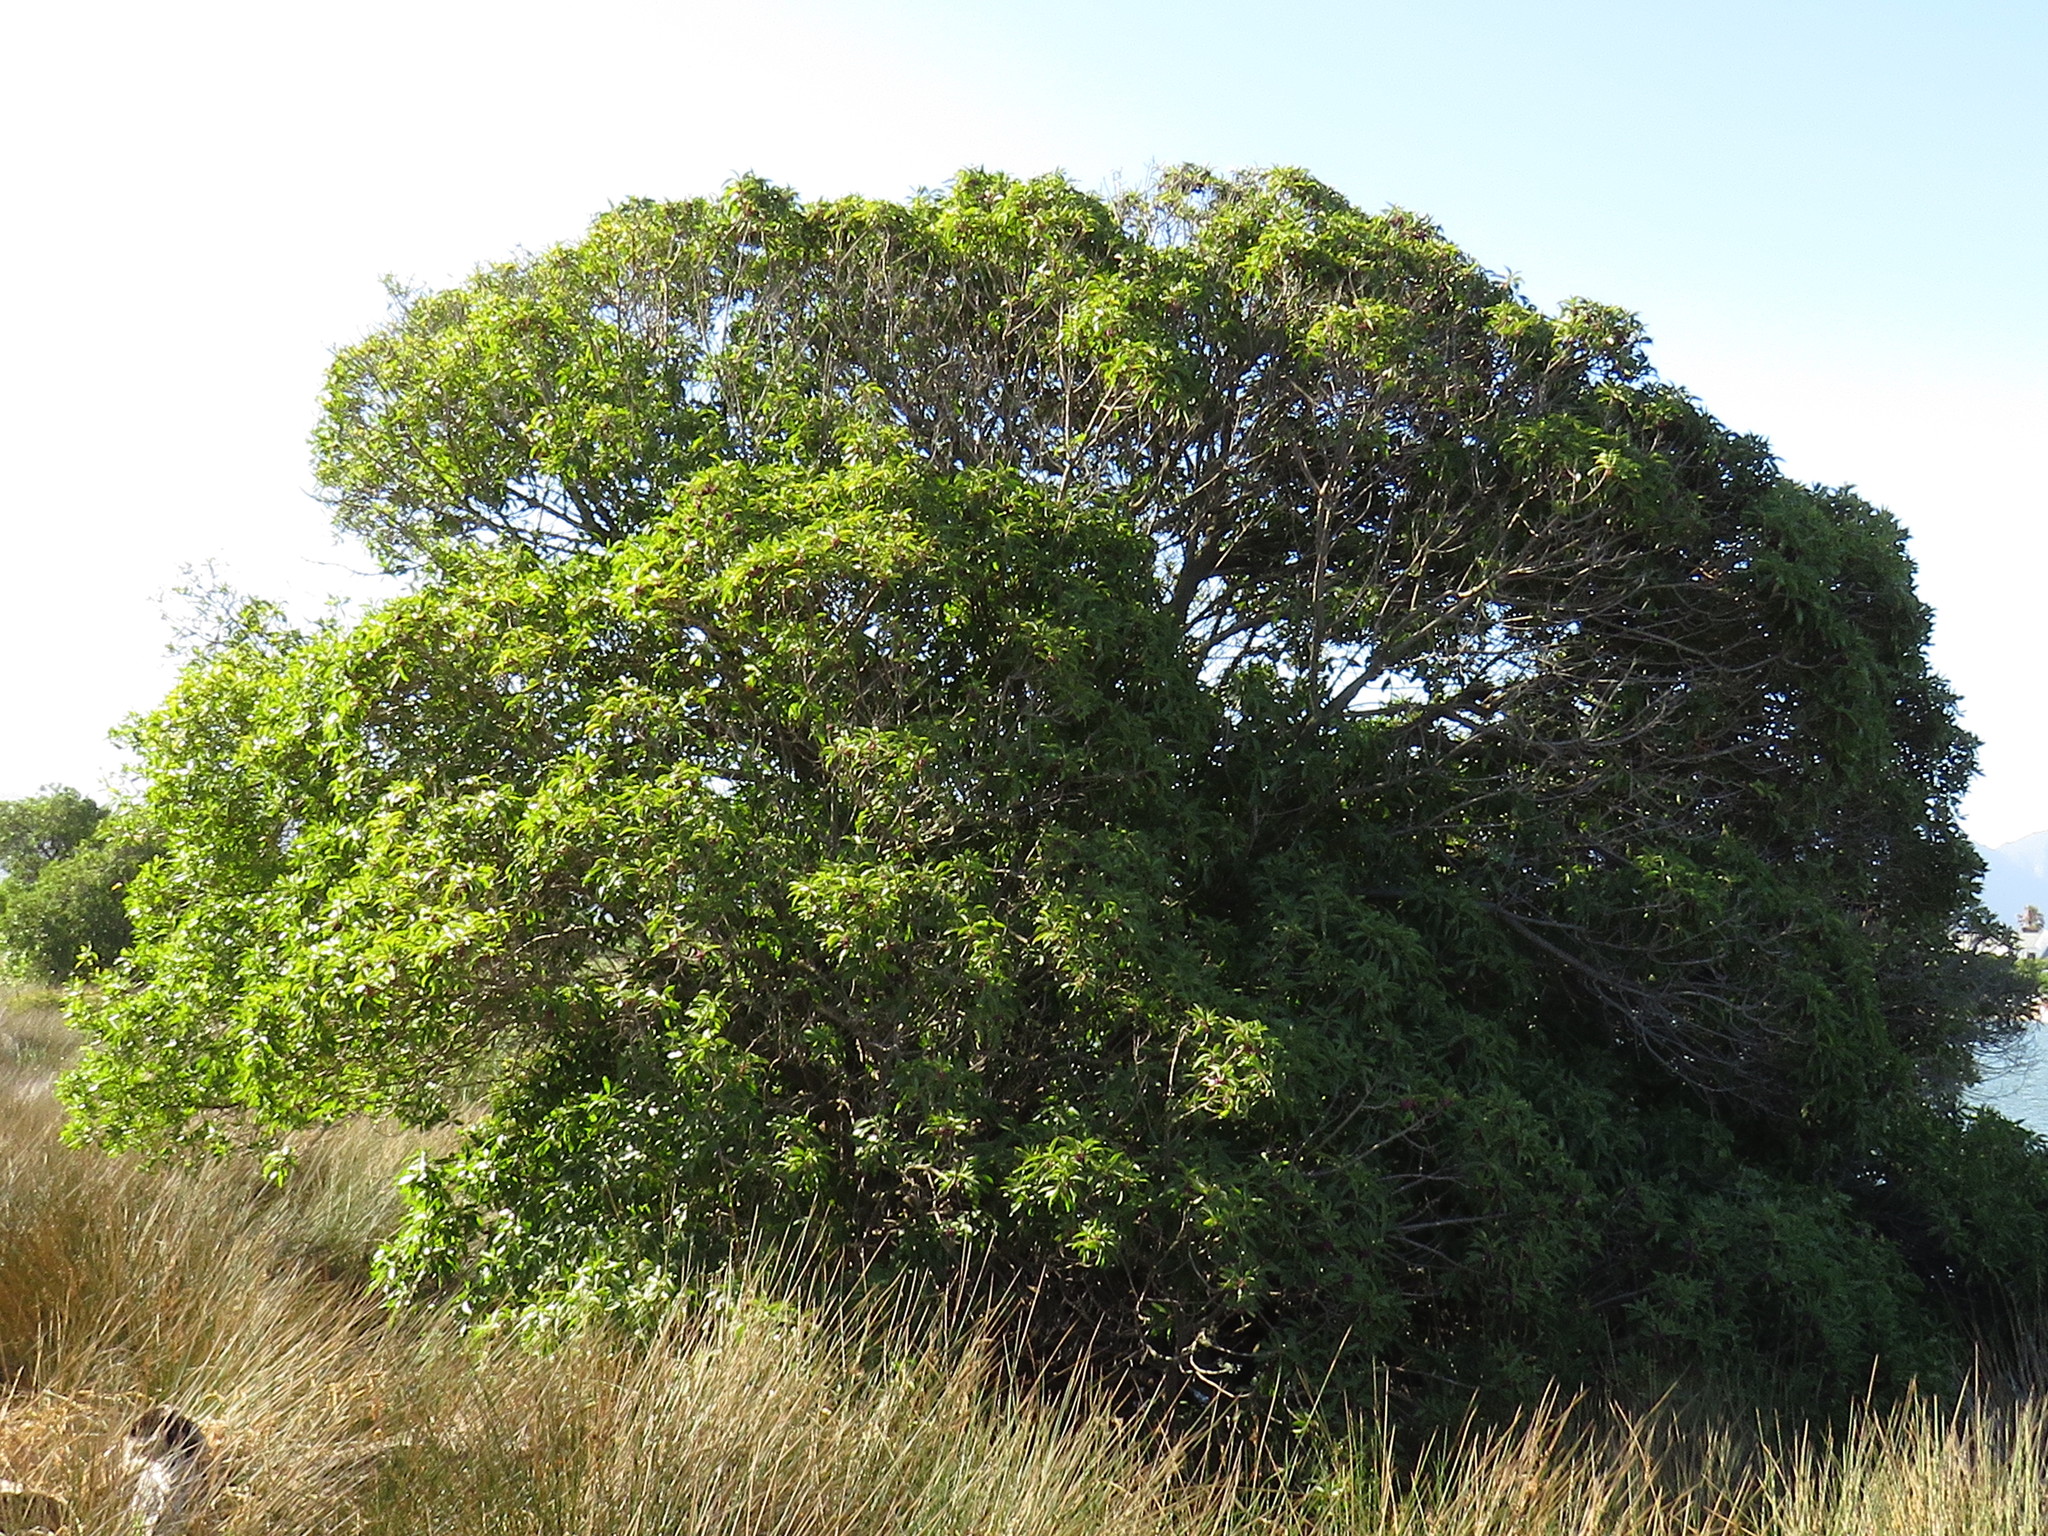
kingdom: Plantae
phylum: Tracheophyta
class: Magnoliopsida
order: Lamiales
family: Scrophulariaceae
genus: Myoporum
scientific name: Myoporum insulare
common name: Common boobialla
